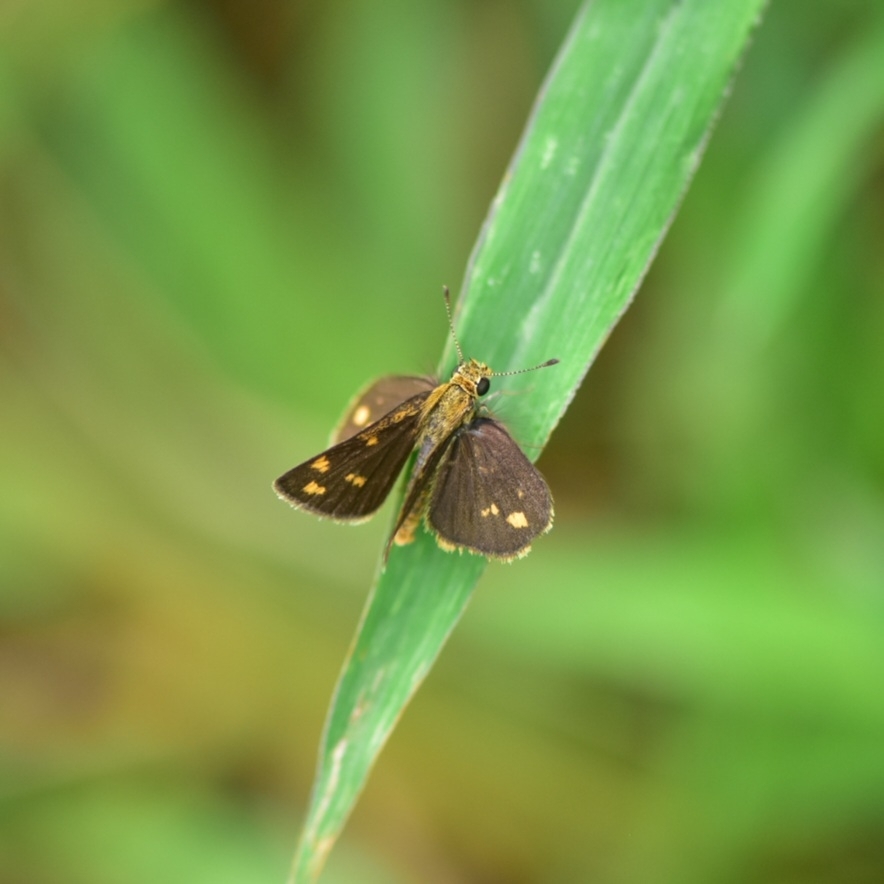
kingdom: Animalia
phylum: Arthropoda
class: Insecta
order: Lepidoptera
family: Hesperiidae
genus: Taractrocera
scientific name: Taractrocera ceramas
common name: Tamil grass dart
